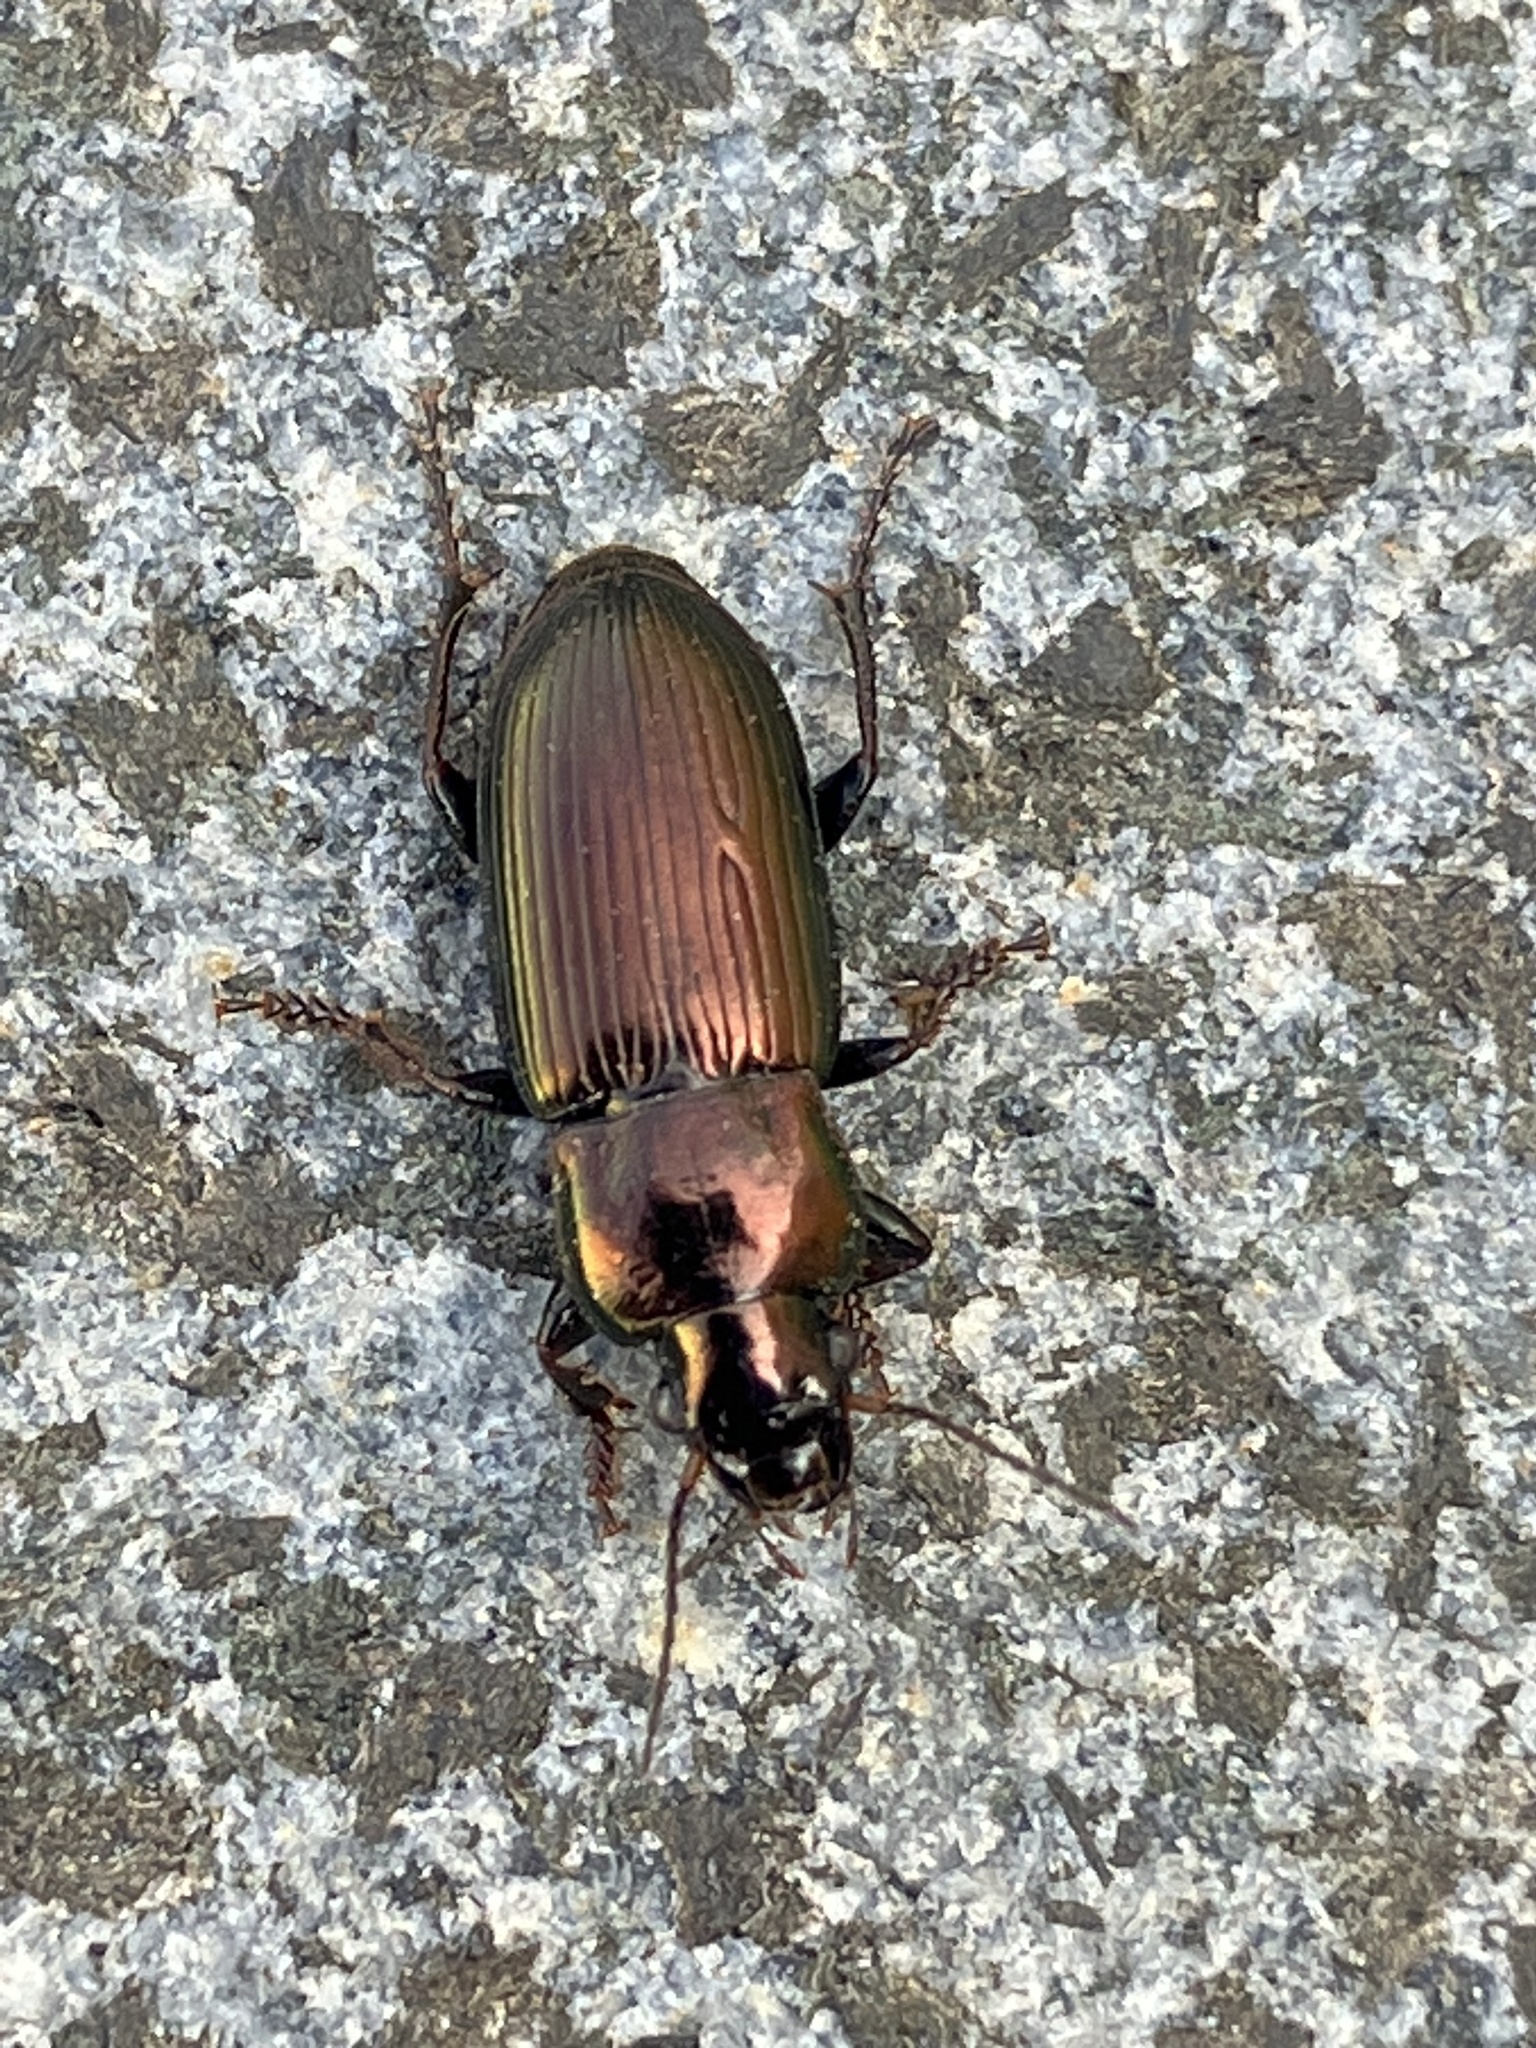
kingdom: Animalia
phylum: Arthropoda
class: Insecta
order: Coleoptera
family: Carabidae
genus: Harpalus
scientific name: Harpalus distinguendus
